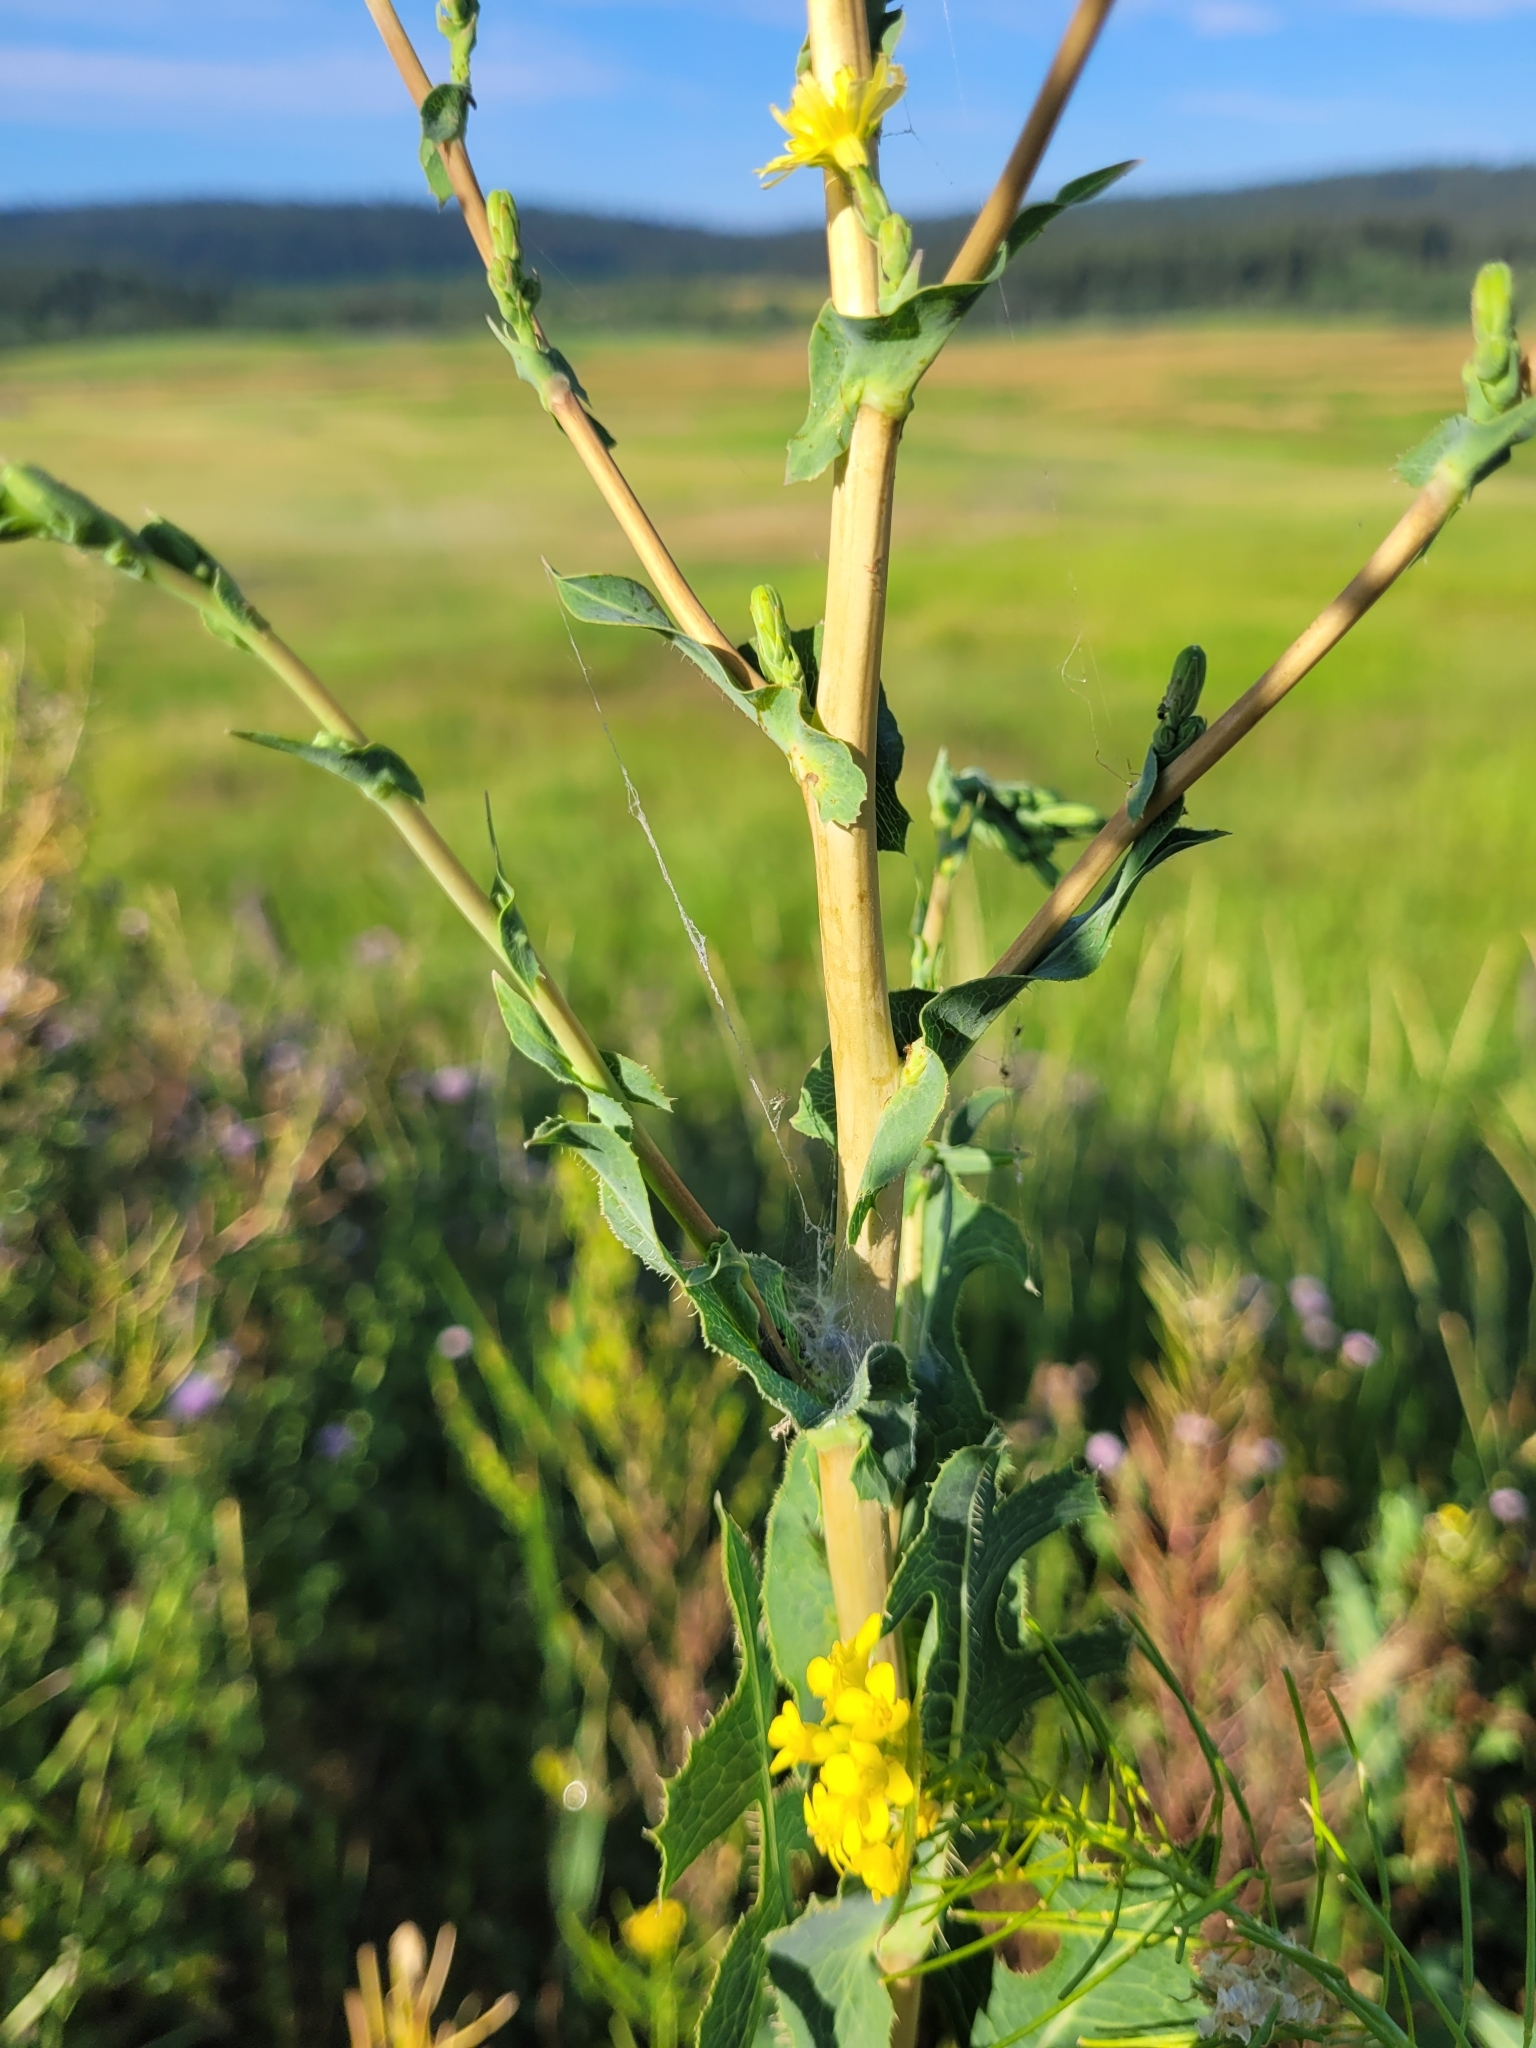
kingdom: Plantae
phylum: Tracheophyta
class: Magnoliopsida
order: Asterales
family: Asteraceae
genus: Lactuca
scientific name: Lactuca serriola
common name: Prickly lettuce
